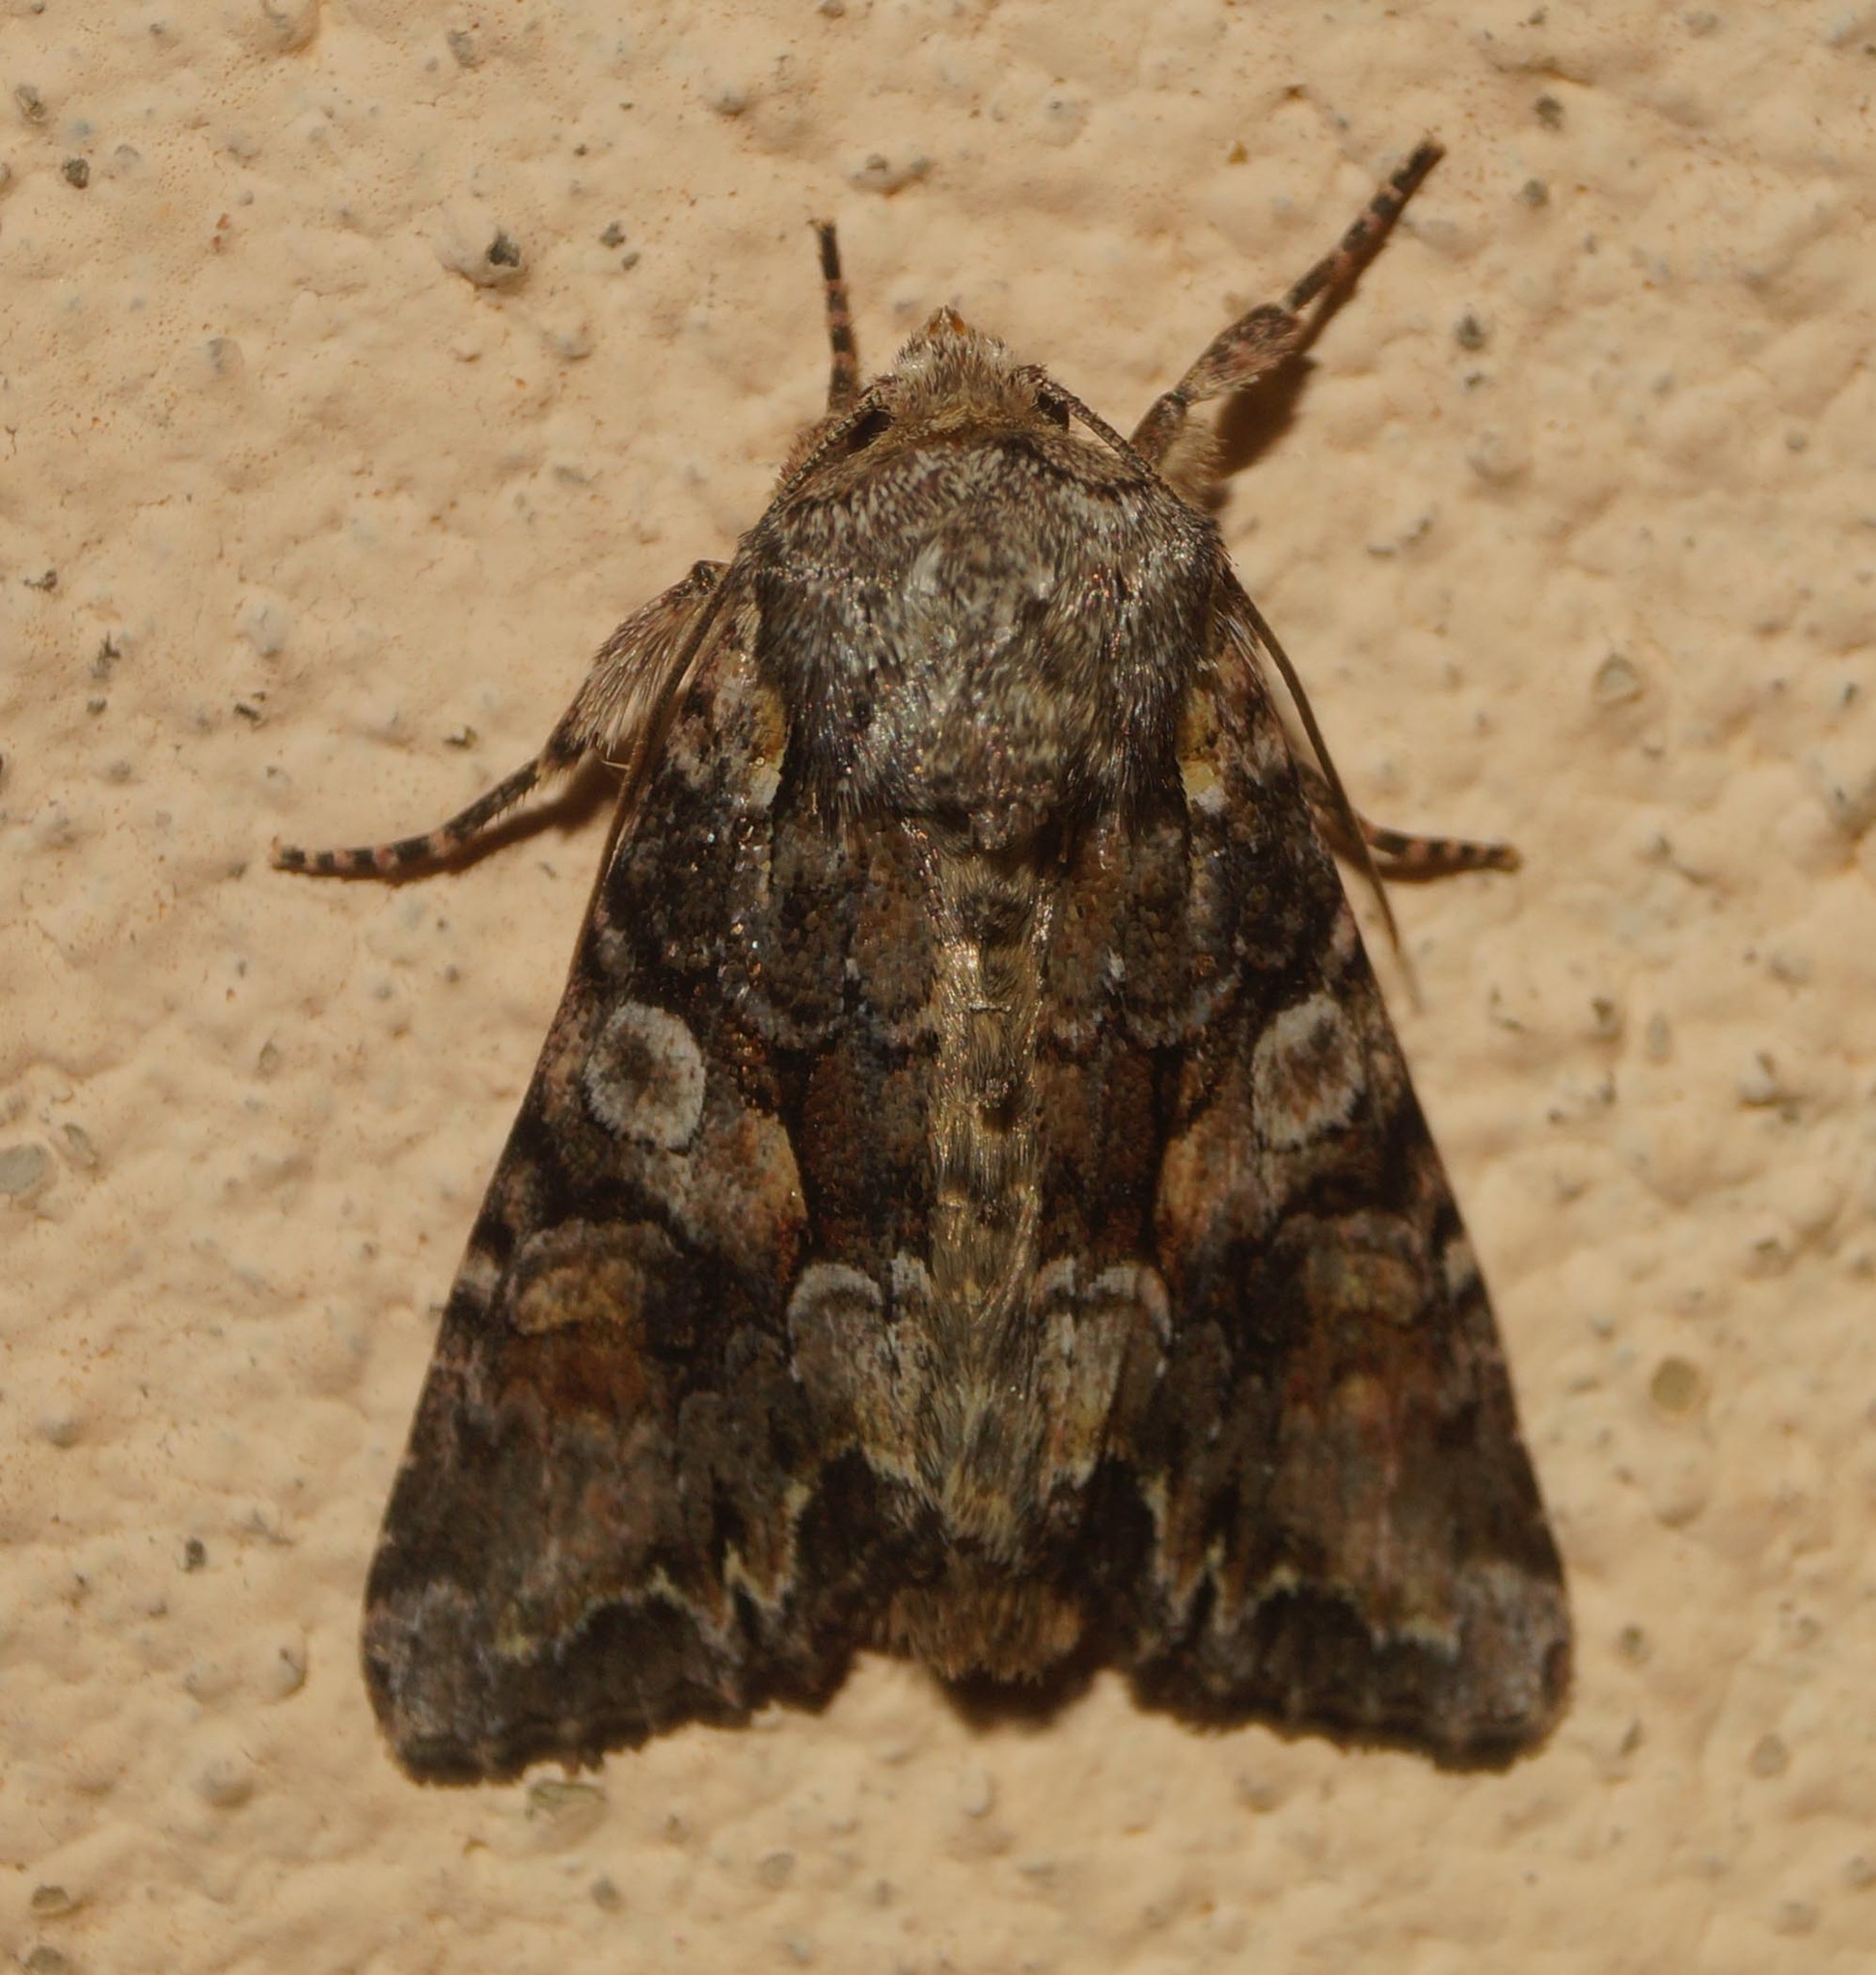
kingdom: Animalia
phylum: Arthropoda
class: Insecta
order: Lepidoptera
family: Noctuidae
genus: Lacanobia
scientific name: Lacanobia contigua
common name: Beautiful brocade
